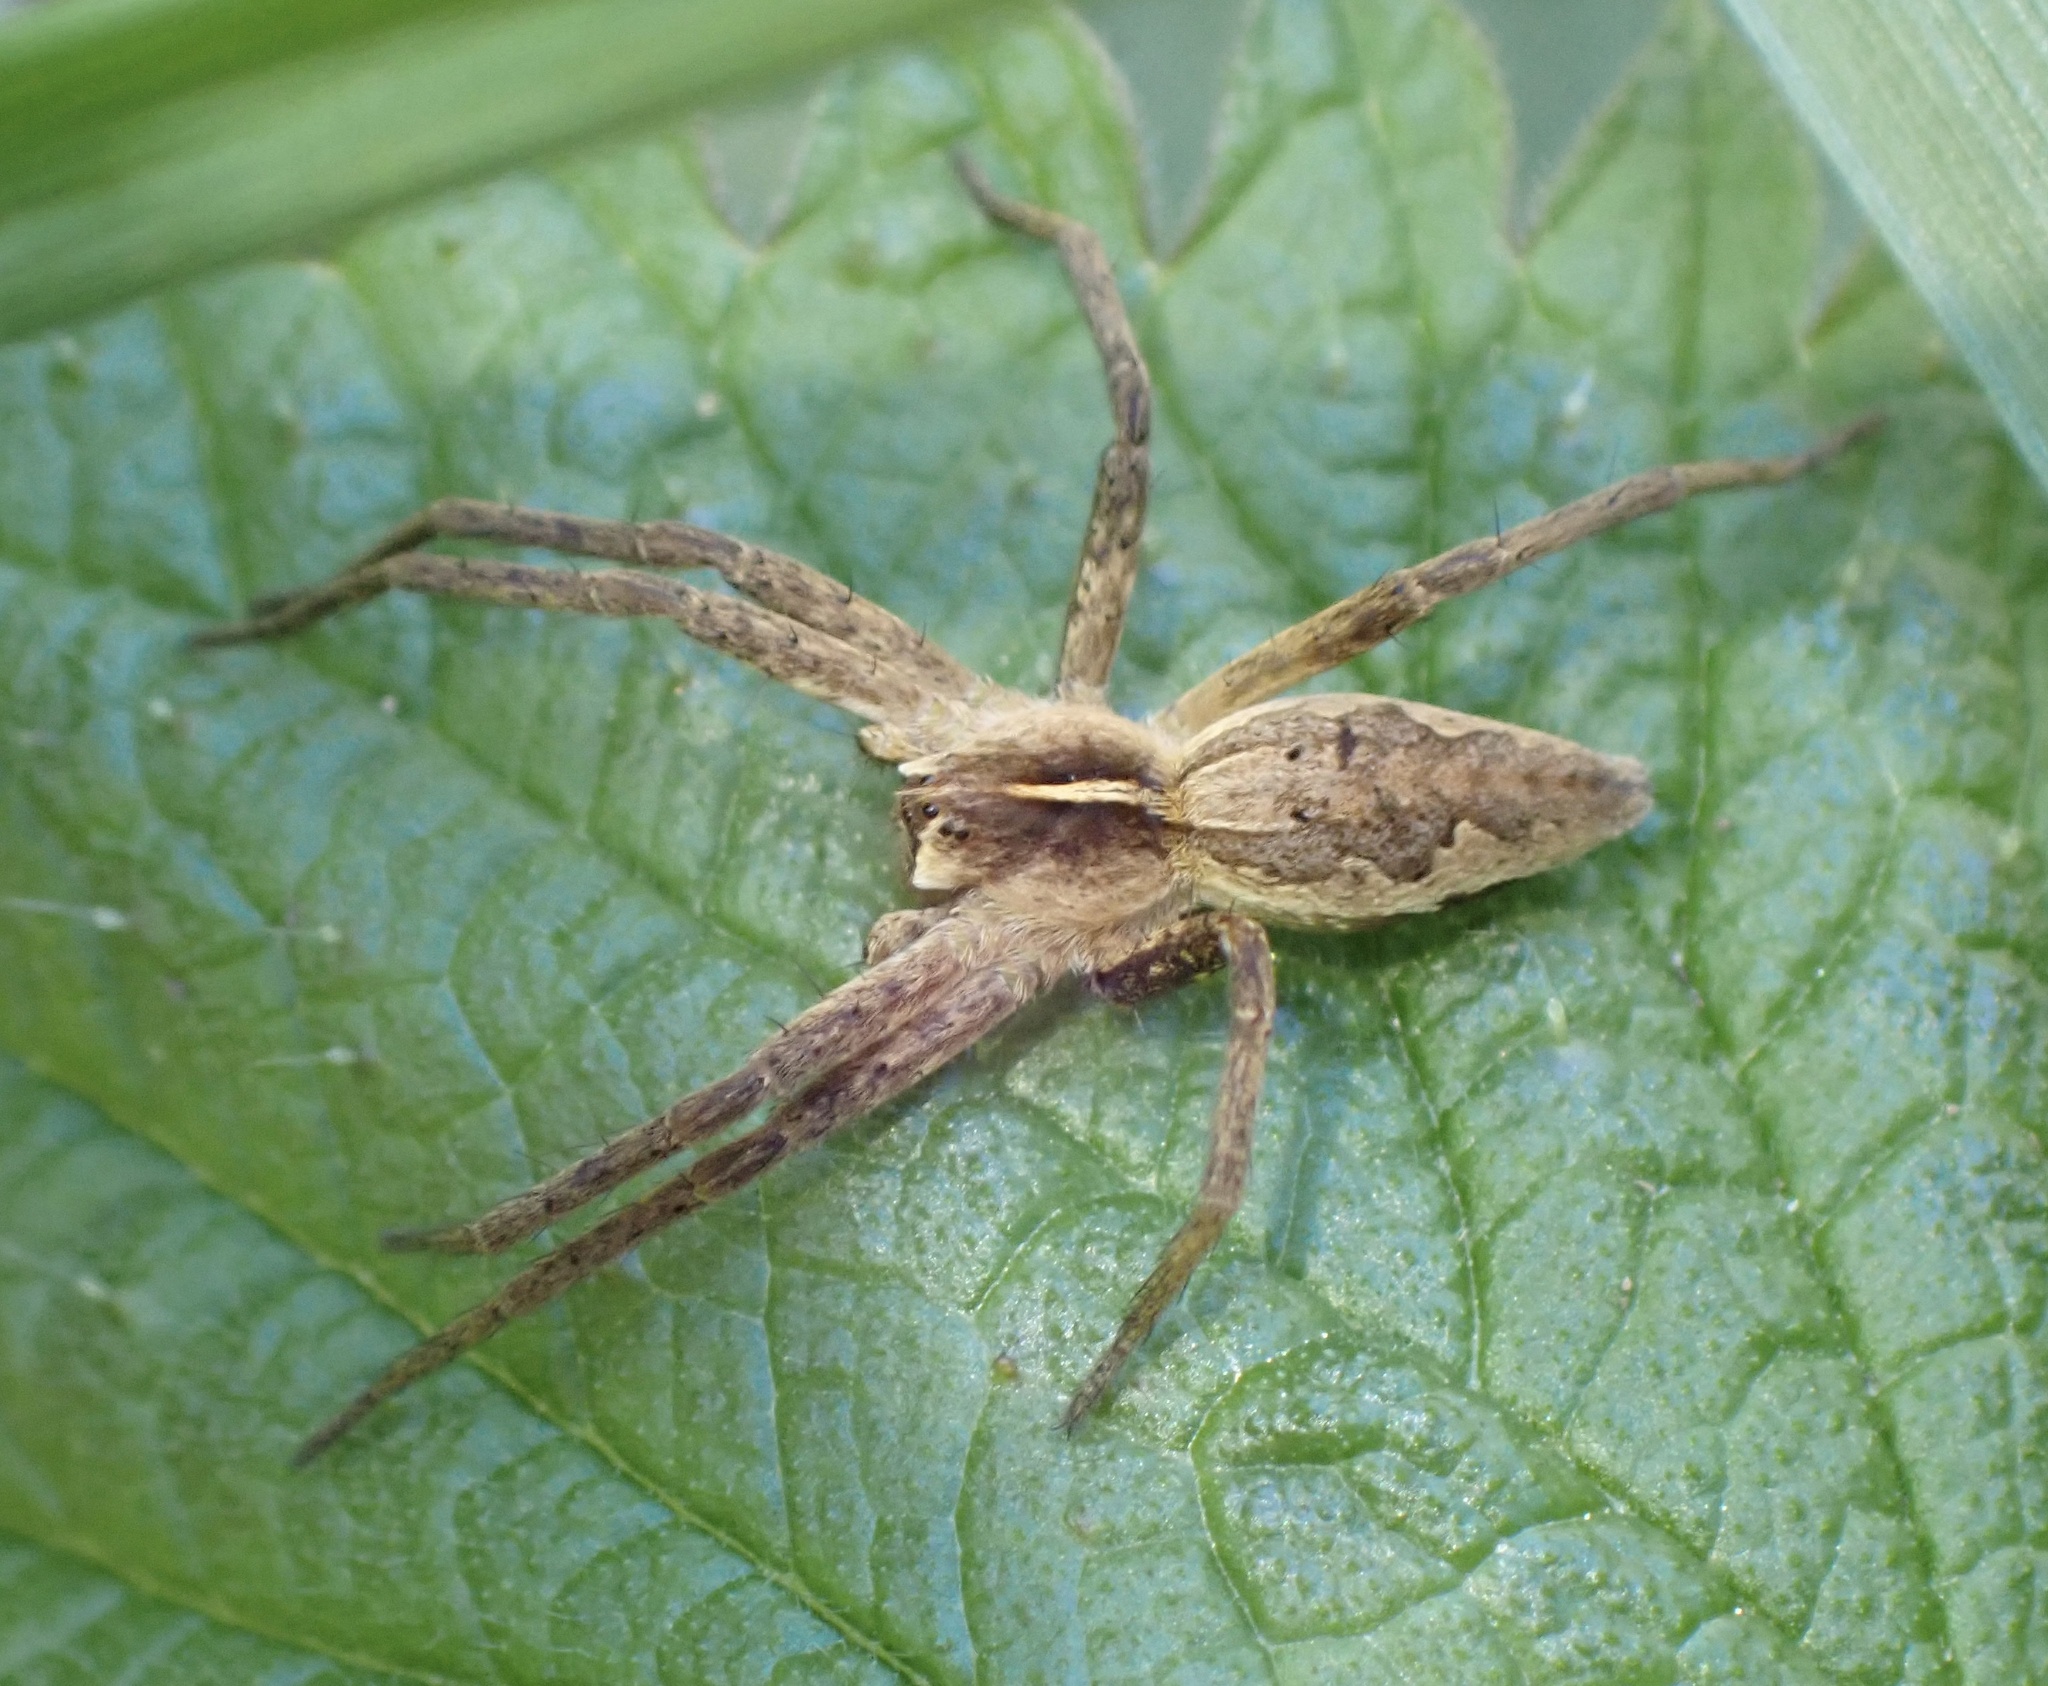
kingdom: Animalia
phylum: Arthropoda
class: Arachnida
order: Araneae
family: Pisauridae
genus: Pisaura
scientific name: Pisaura mirabilis
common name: Tent spider
